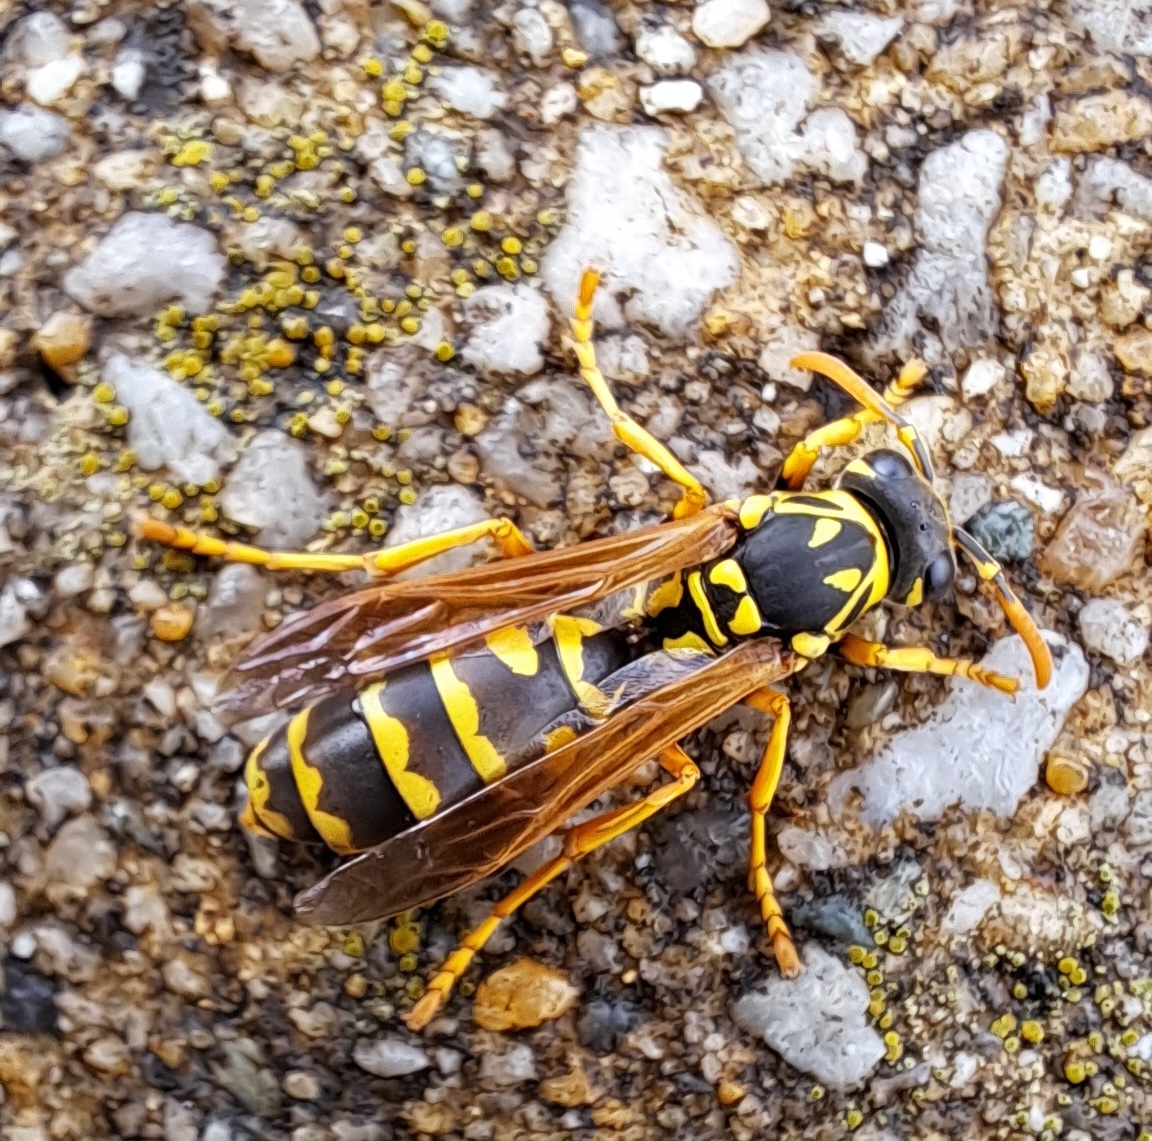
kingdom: Animalia
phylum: Arthropoda
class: Insecta
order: Hymenoptera
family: Eumenidae
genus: Polistes
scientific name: Polistes dominula
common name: Paper wasp
